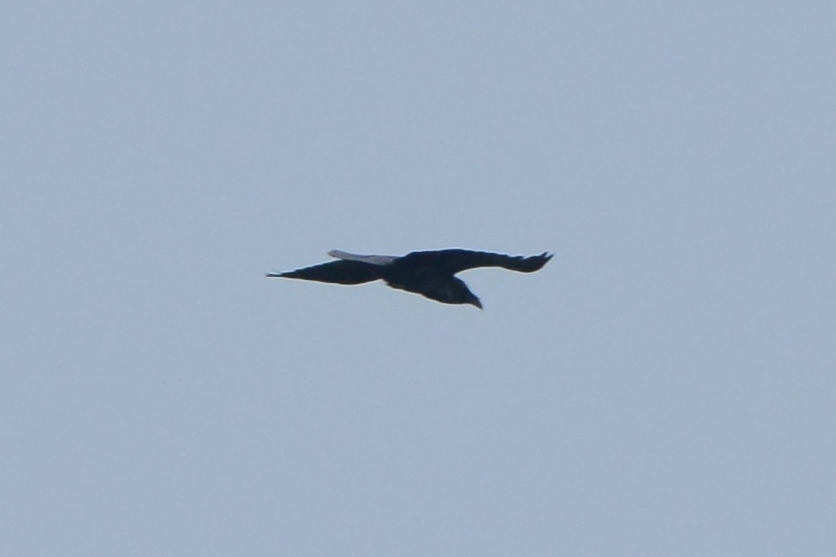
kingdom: Animalia
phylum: Chordata
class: Aves
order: Passeriformes
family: Corvidae
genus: Corvus
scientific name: Corvus corax
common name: Common raven
